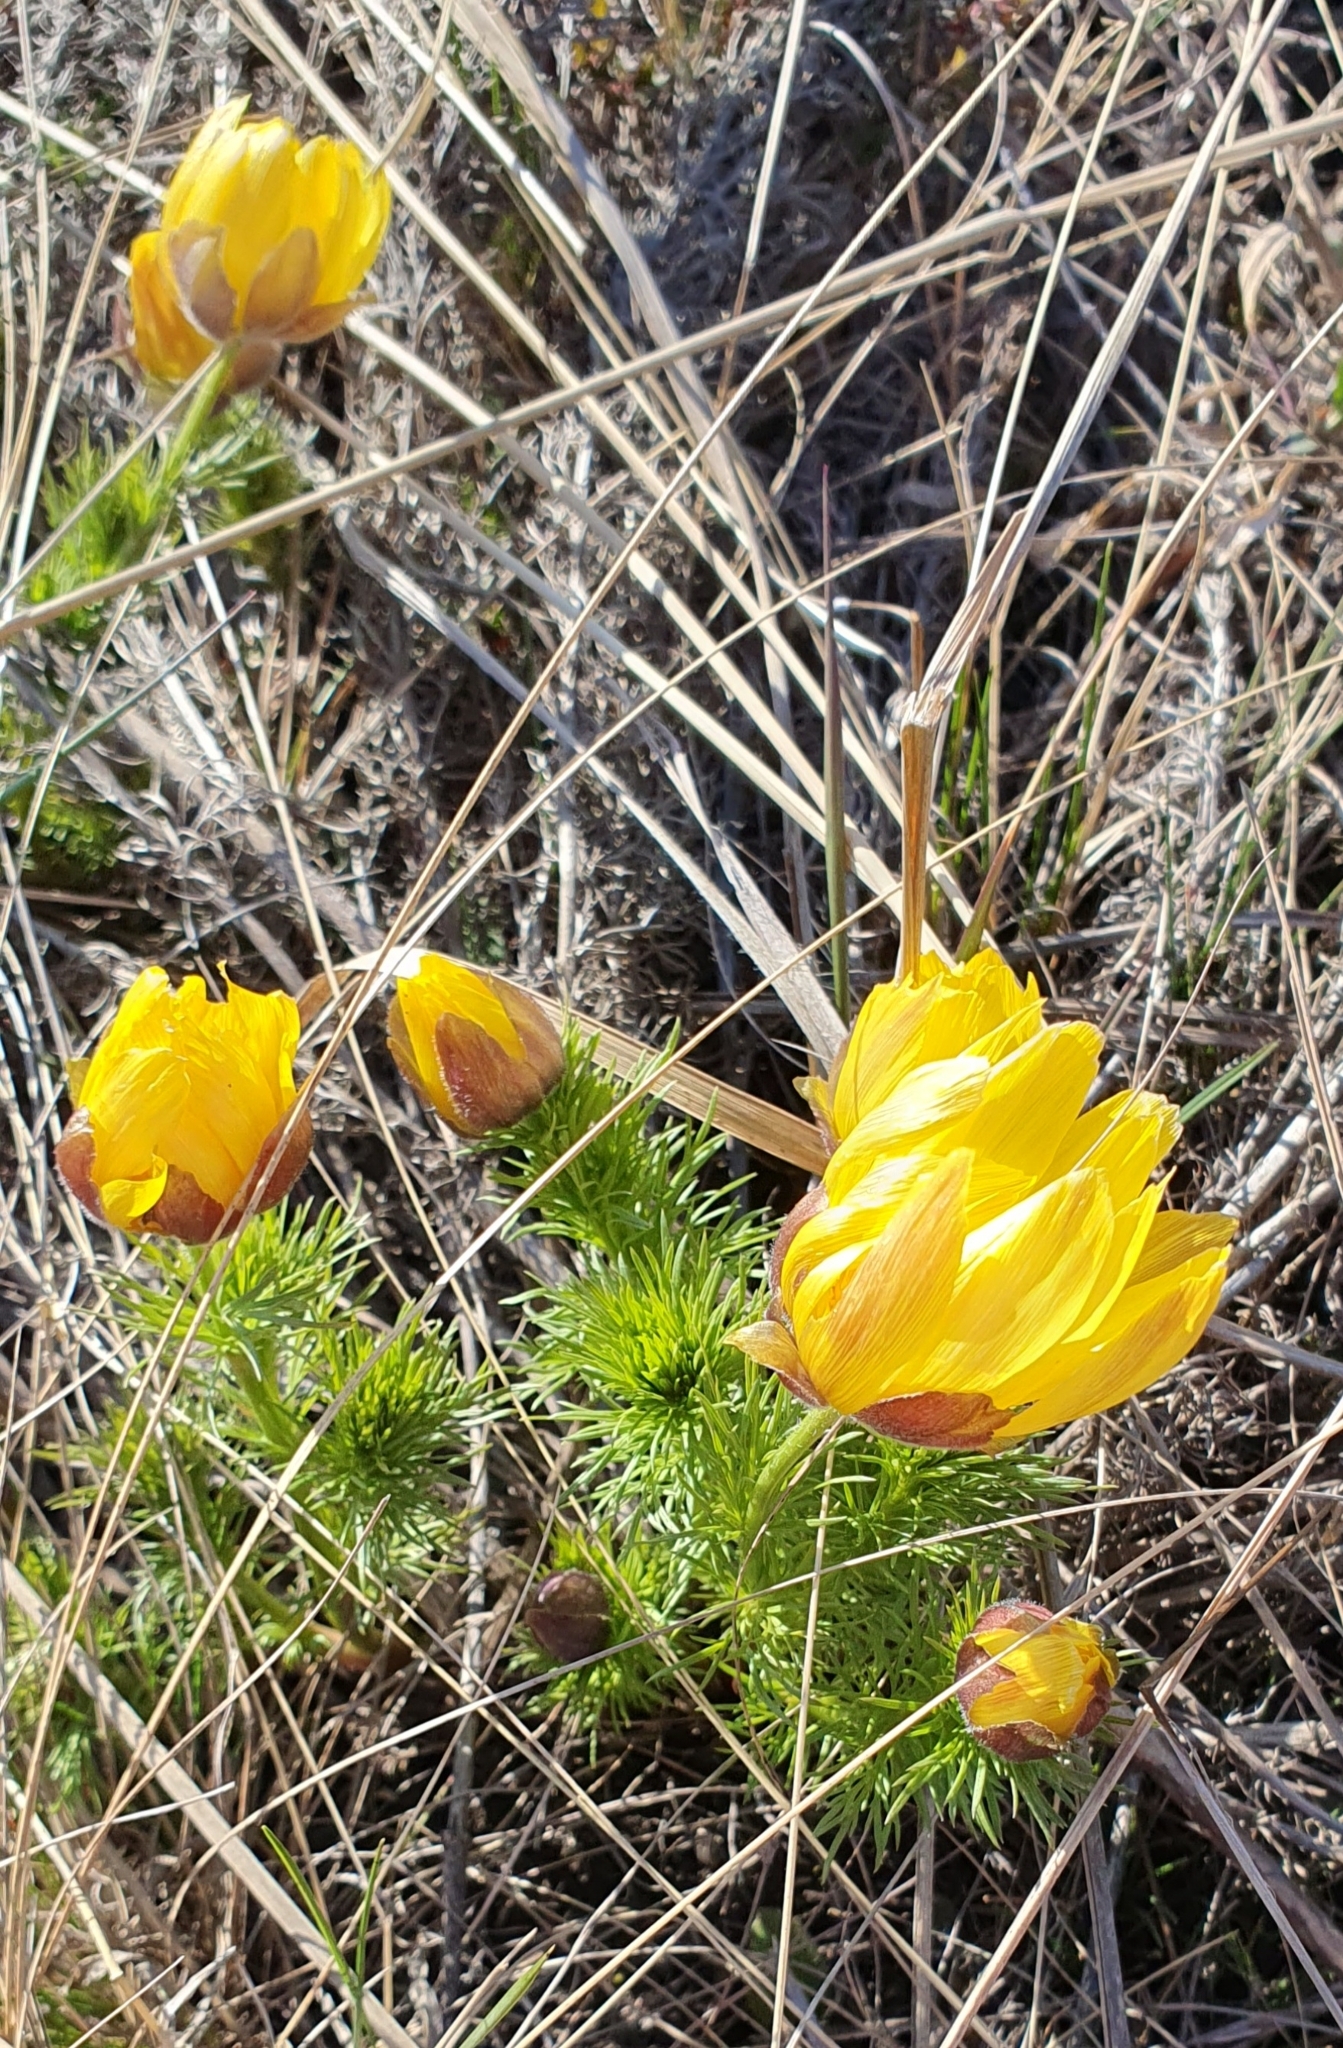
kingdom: Plantae
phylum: Tracheophyta
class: Magnoliopsida
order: Ranunculales
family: Ranunculaceae
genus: Adonis
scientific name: Adonis vernalis
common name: Yellow pheasants-eye
